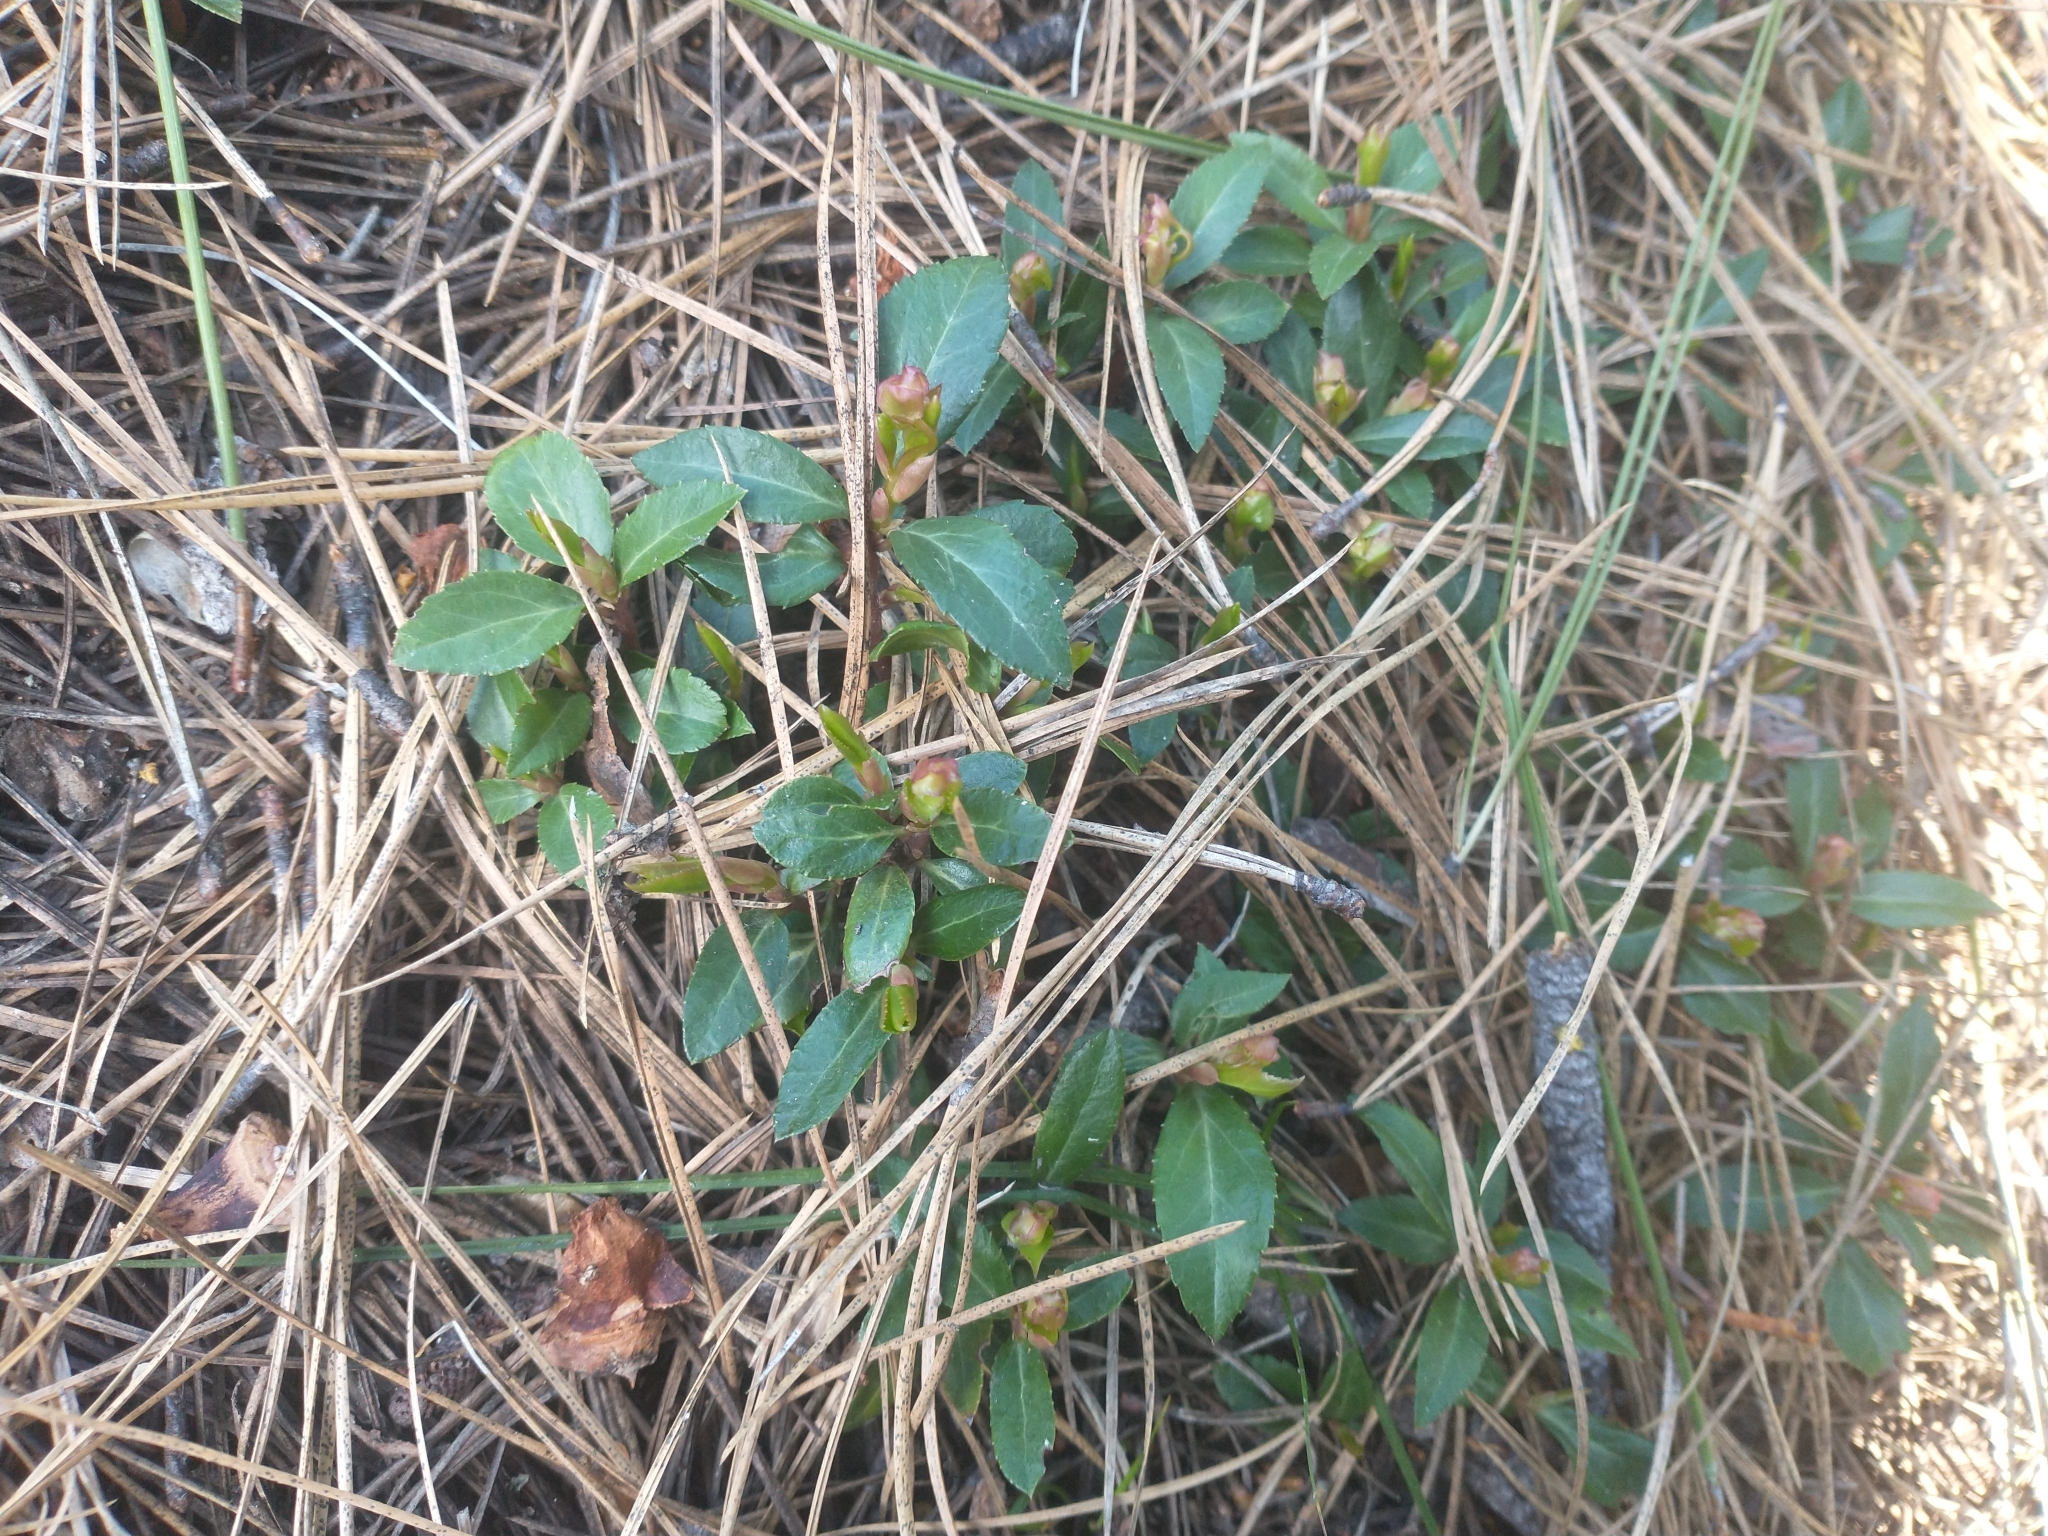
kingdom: Plantae
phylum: Tracheophyta
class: Magnoliopsida
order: Ericales
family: Ericaceae
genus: Chimaphila
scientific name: Chimaphila menziesii
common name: Menzies' pipsissewa
